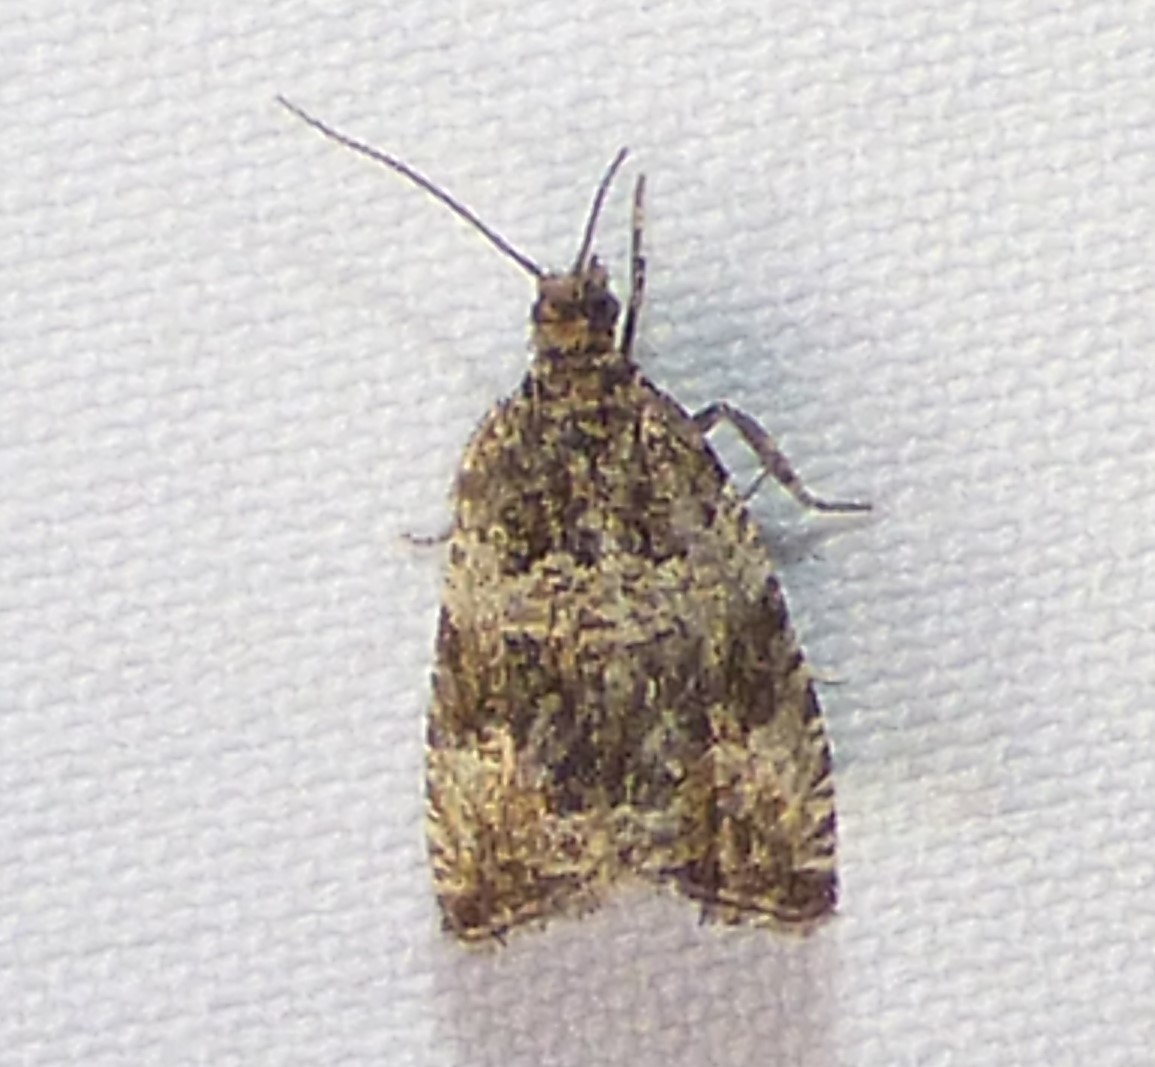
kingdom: Animalia
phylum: Arthropoda
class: Insecta
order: Lepidoptera
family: Tortricidae
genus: Celypha
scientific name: Celypha cespitana
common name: Thyme marble
